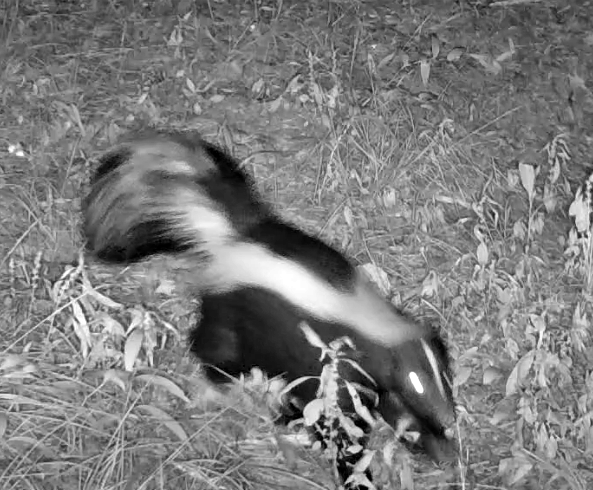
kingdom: Animalia
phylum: Chordata
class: Mammalia
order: Carnivora
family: Mephitidae
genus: Mephitis
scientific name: Mephitis mephitis
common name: Striped skunk
